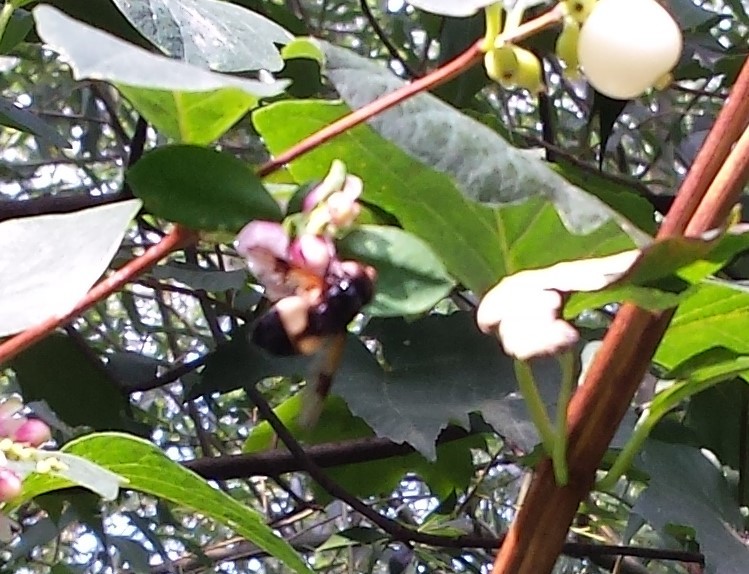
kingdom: Animalia
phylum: Arthropoda
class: Insecta
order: Diptera
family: Syrphidae
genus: Volucella
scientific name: Volucella pellucens
